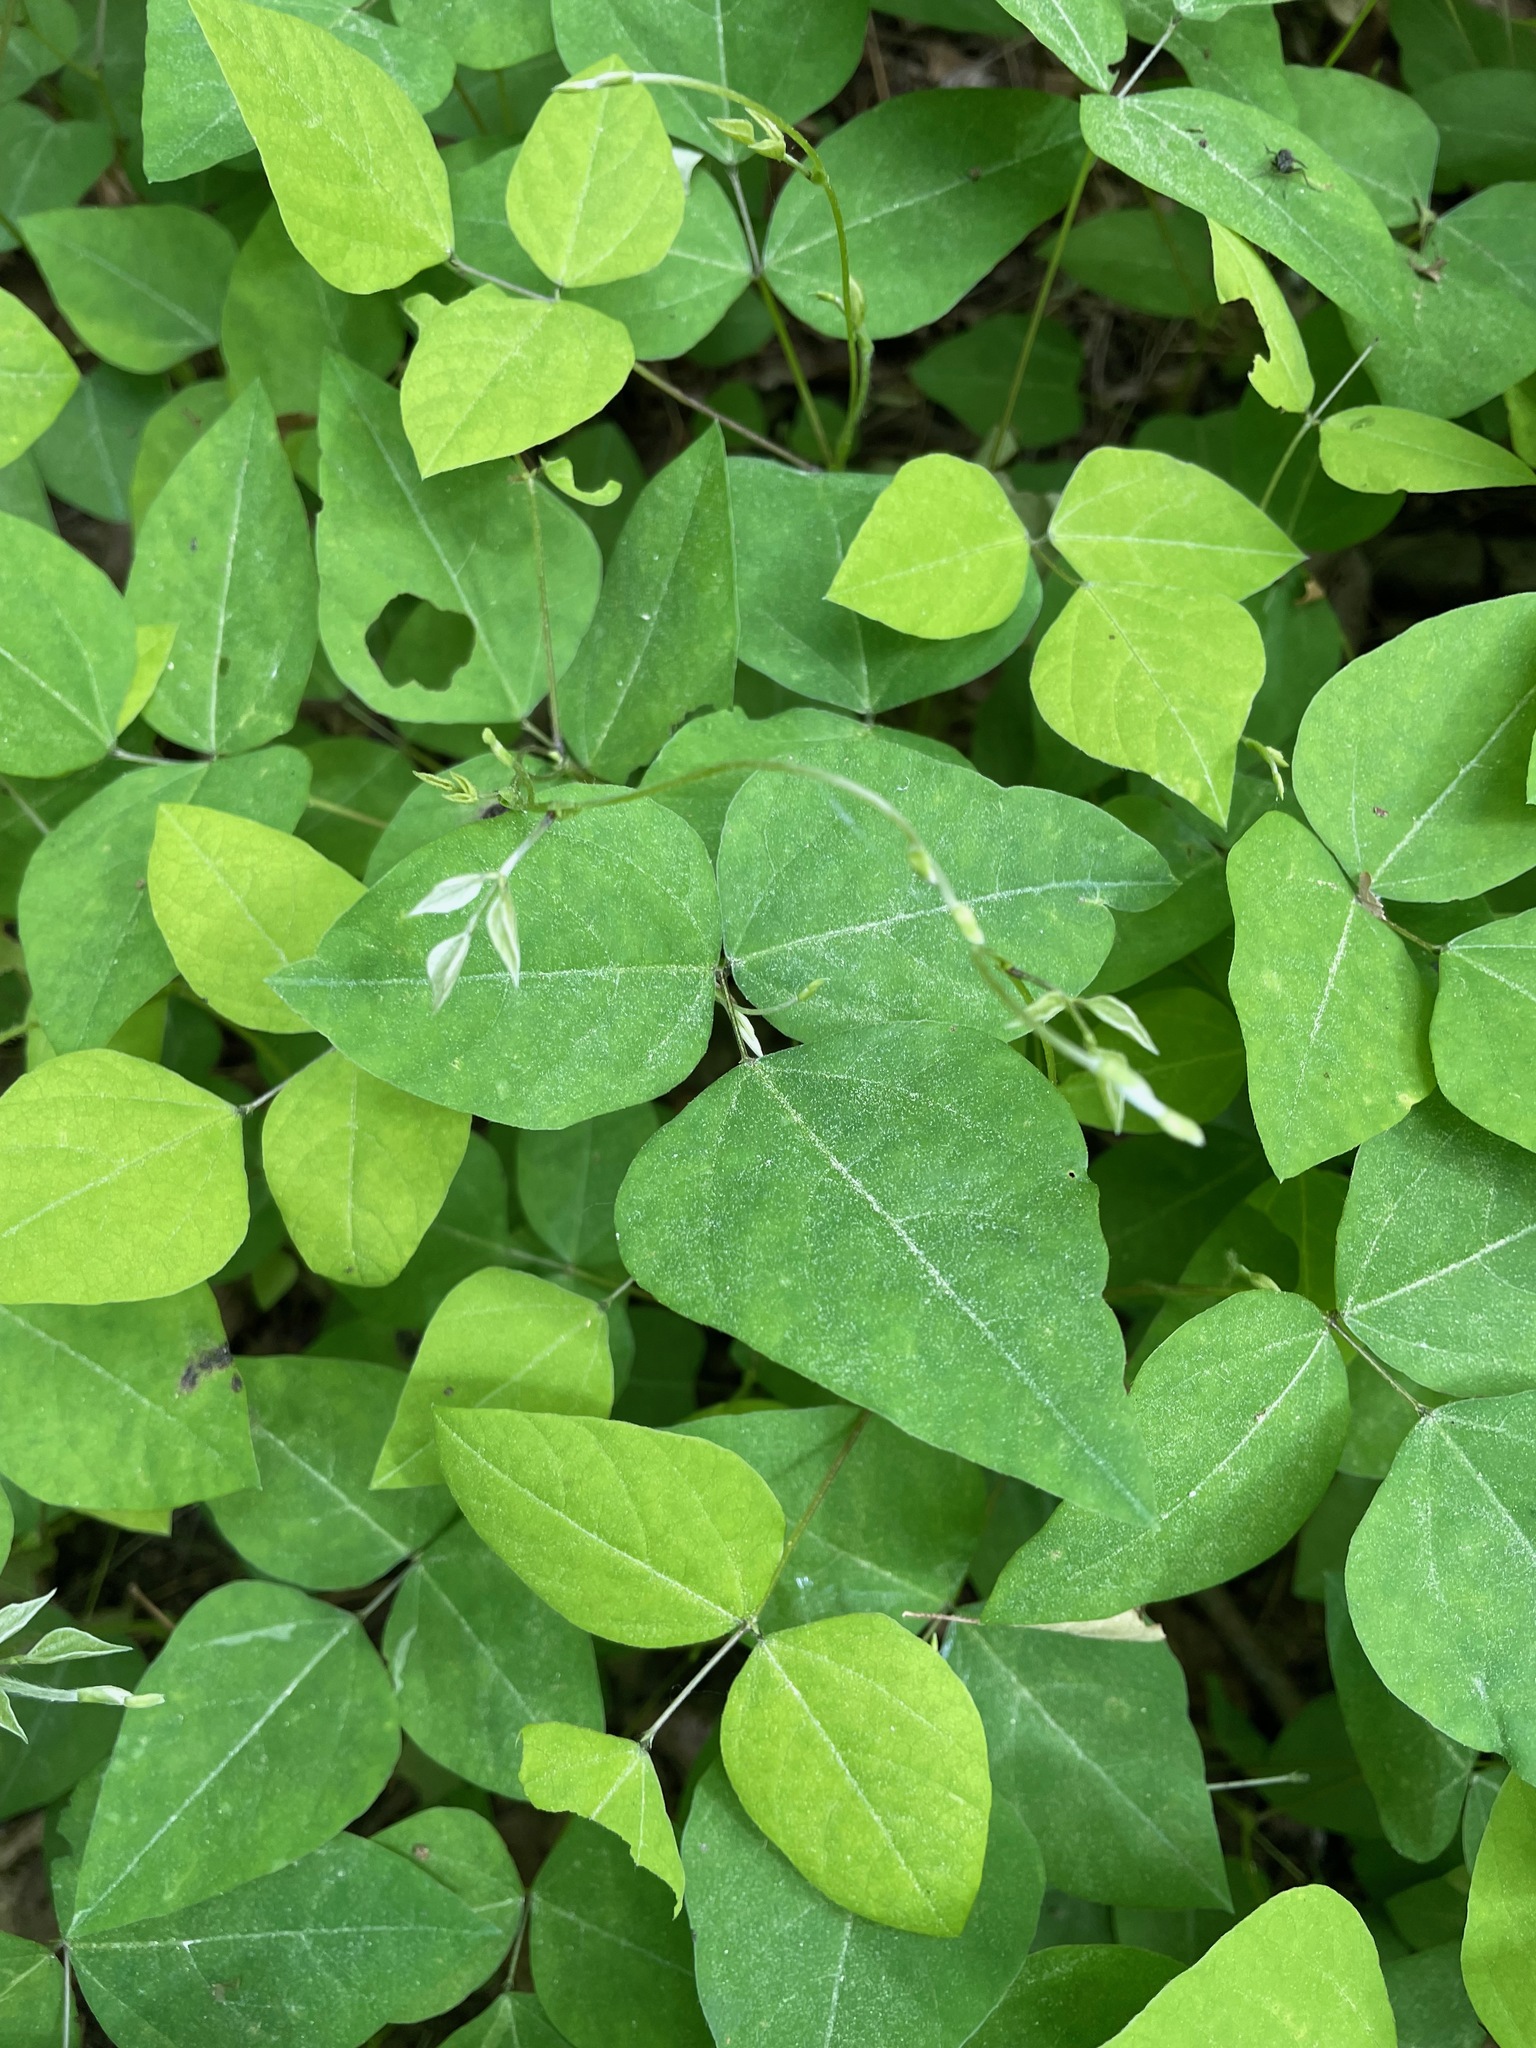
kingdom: Plantae
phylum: Tracheophyta
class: Magnoliopsida
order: Fabales
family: Fabaceae
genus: Amphicarpaea
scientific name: Amphicarpaea bracteata
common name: American hog peanut
